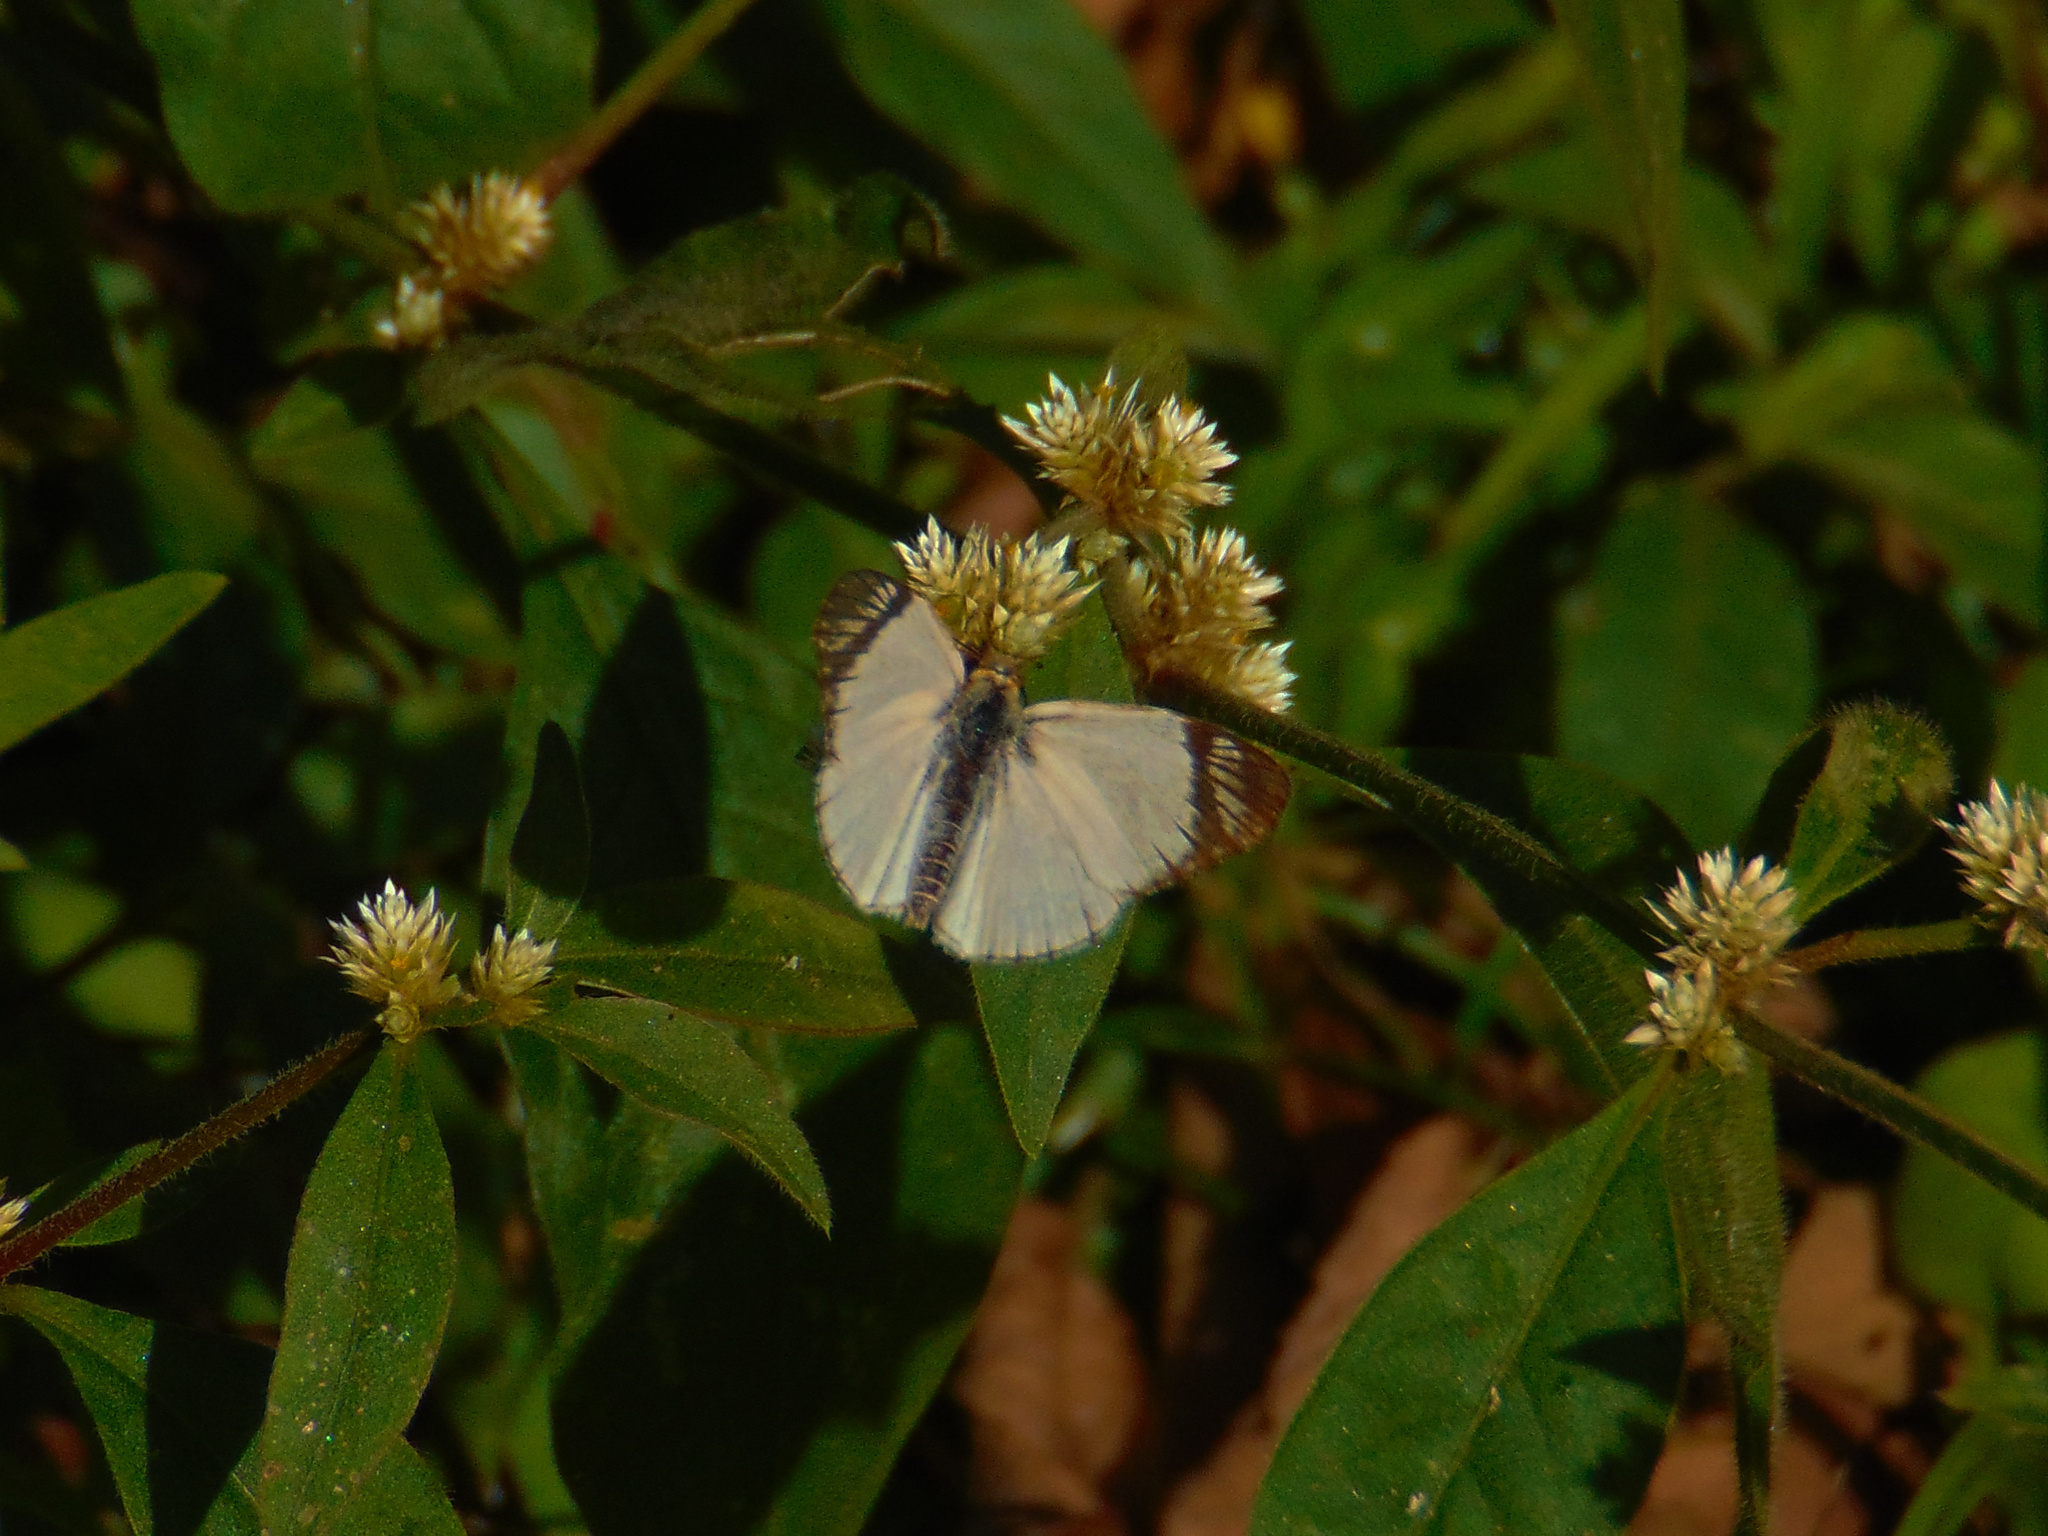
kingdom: Animalia
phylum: Arthropoda
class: Insecta
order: Lepidoptera
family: Hesperiidae
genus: Heliopetes
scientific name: Heliopetes alana
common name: Alana white-skipper
